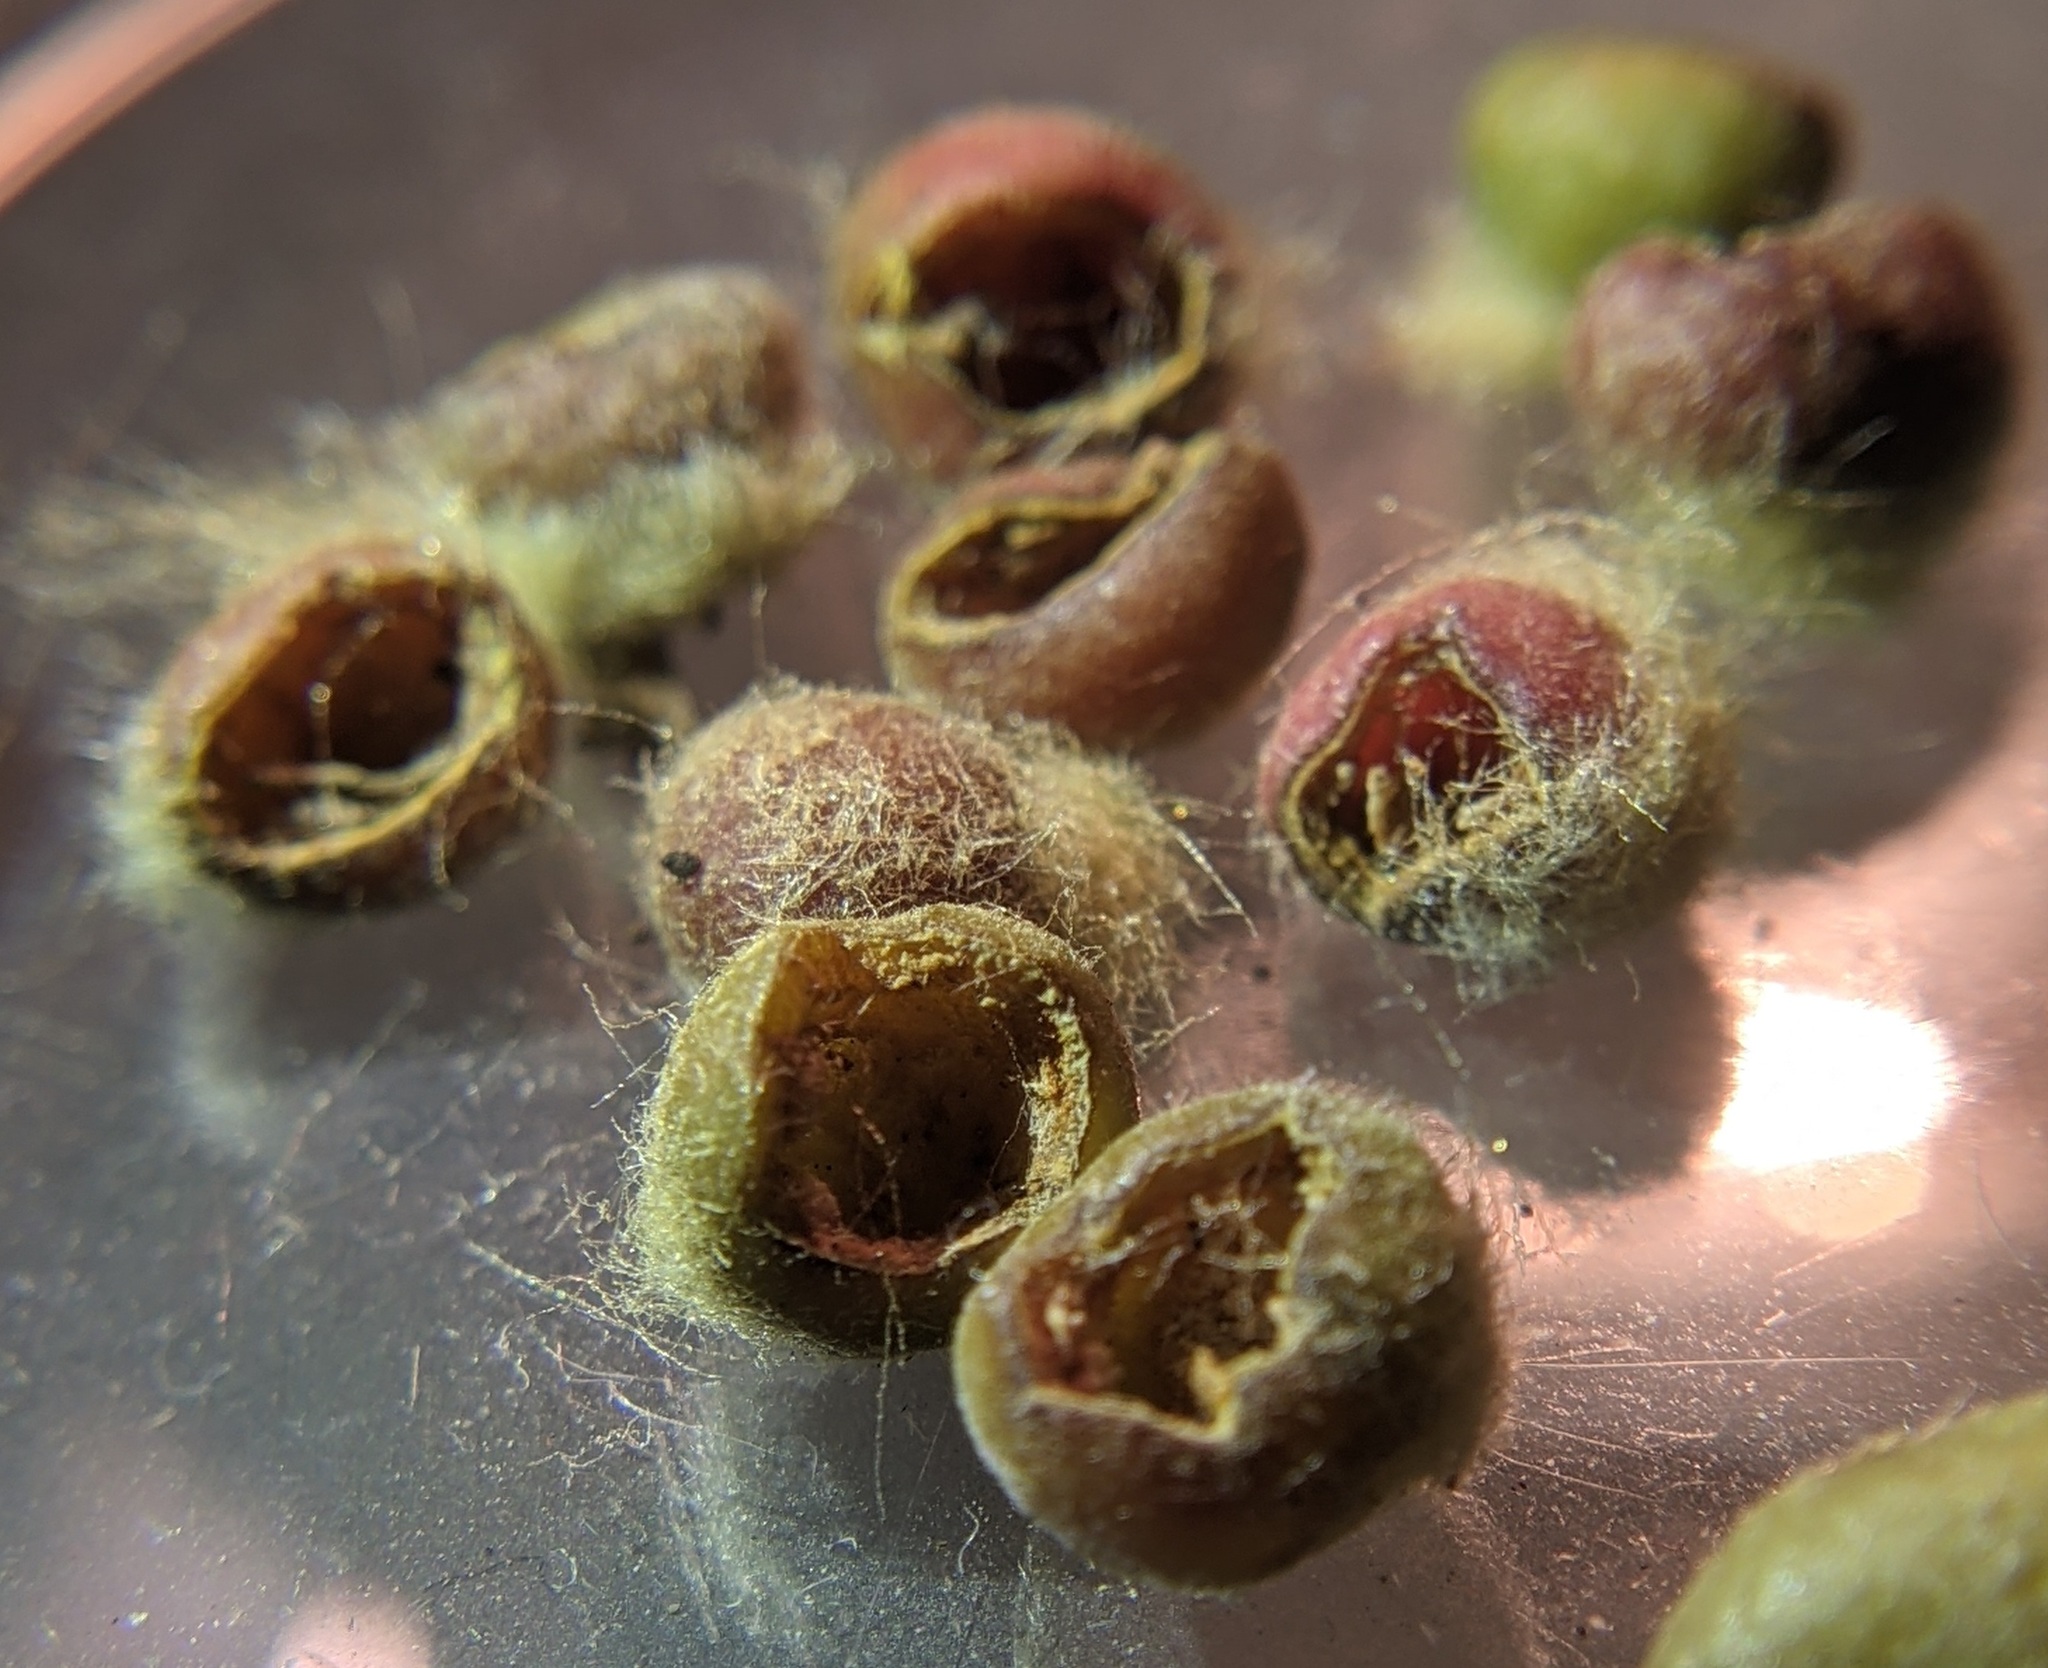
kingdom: Animalia
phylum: Arthropoda
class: Insecta
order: Hymenoptera
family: Cynipidae
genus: Callirhytis
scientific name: Callirhytis
